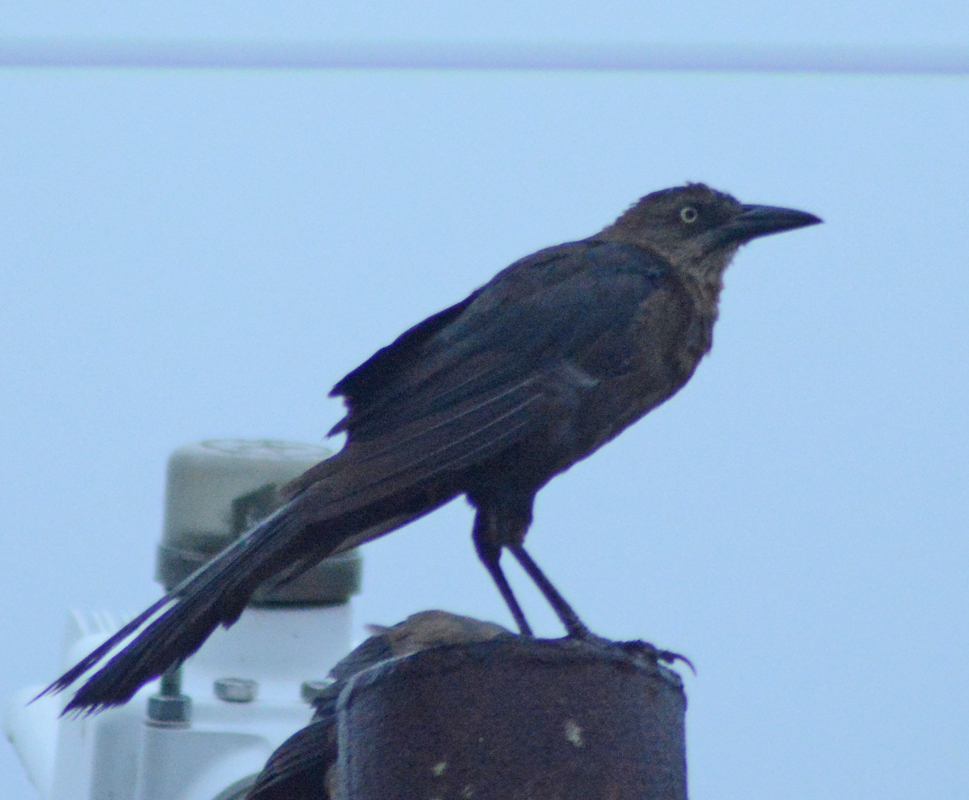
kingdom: Animalia
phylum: Chordata
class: Aves
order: Passeriformes
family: Icteridae
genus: Quiscalus
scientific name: Quiscalus mexicanus
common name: Great-tailed grackle
